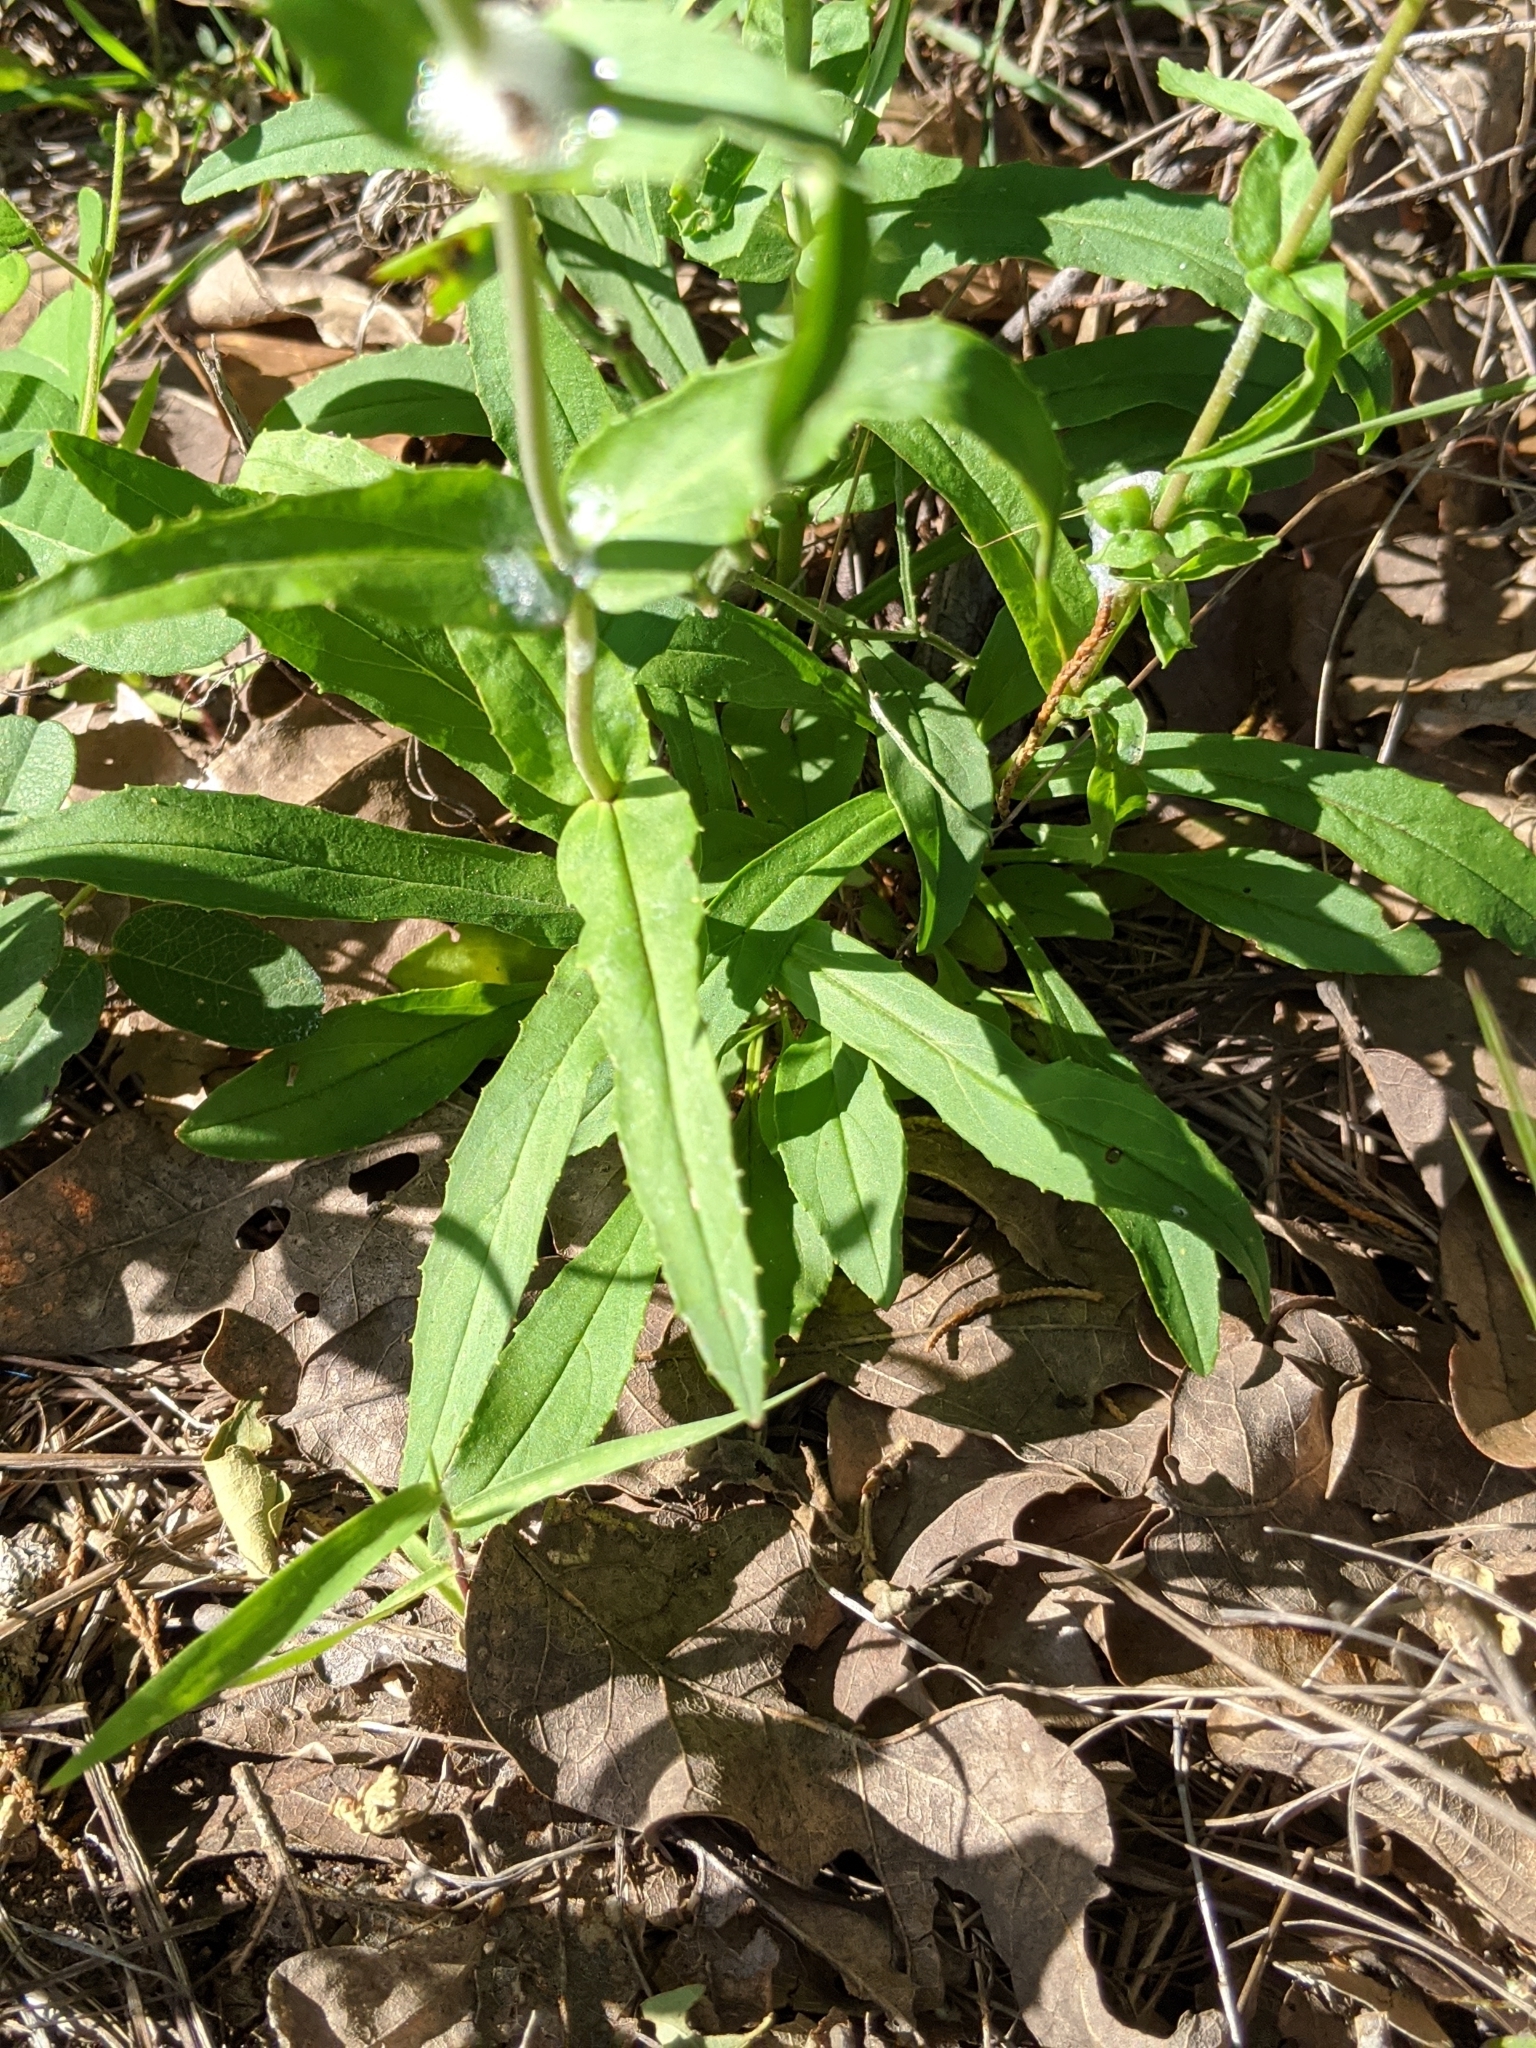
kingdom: Plantae
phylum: Tracheophyta
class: Magnoliopsida
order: Lamiales
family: Plantaginaceae
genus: Penstemon
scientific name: Penstemon laxiflorus
